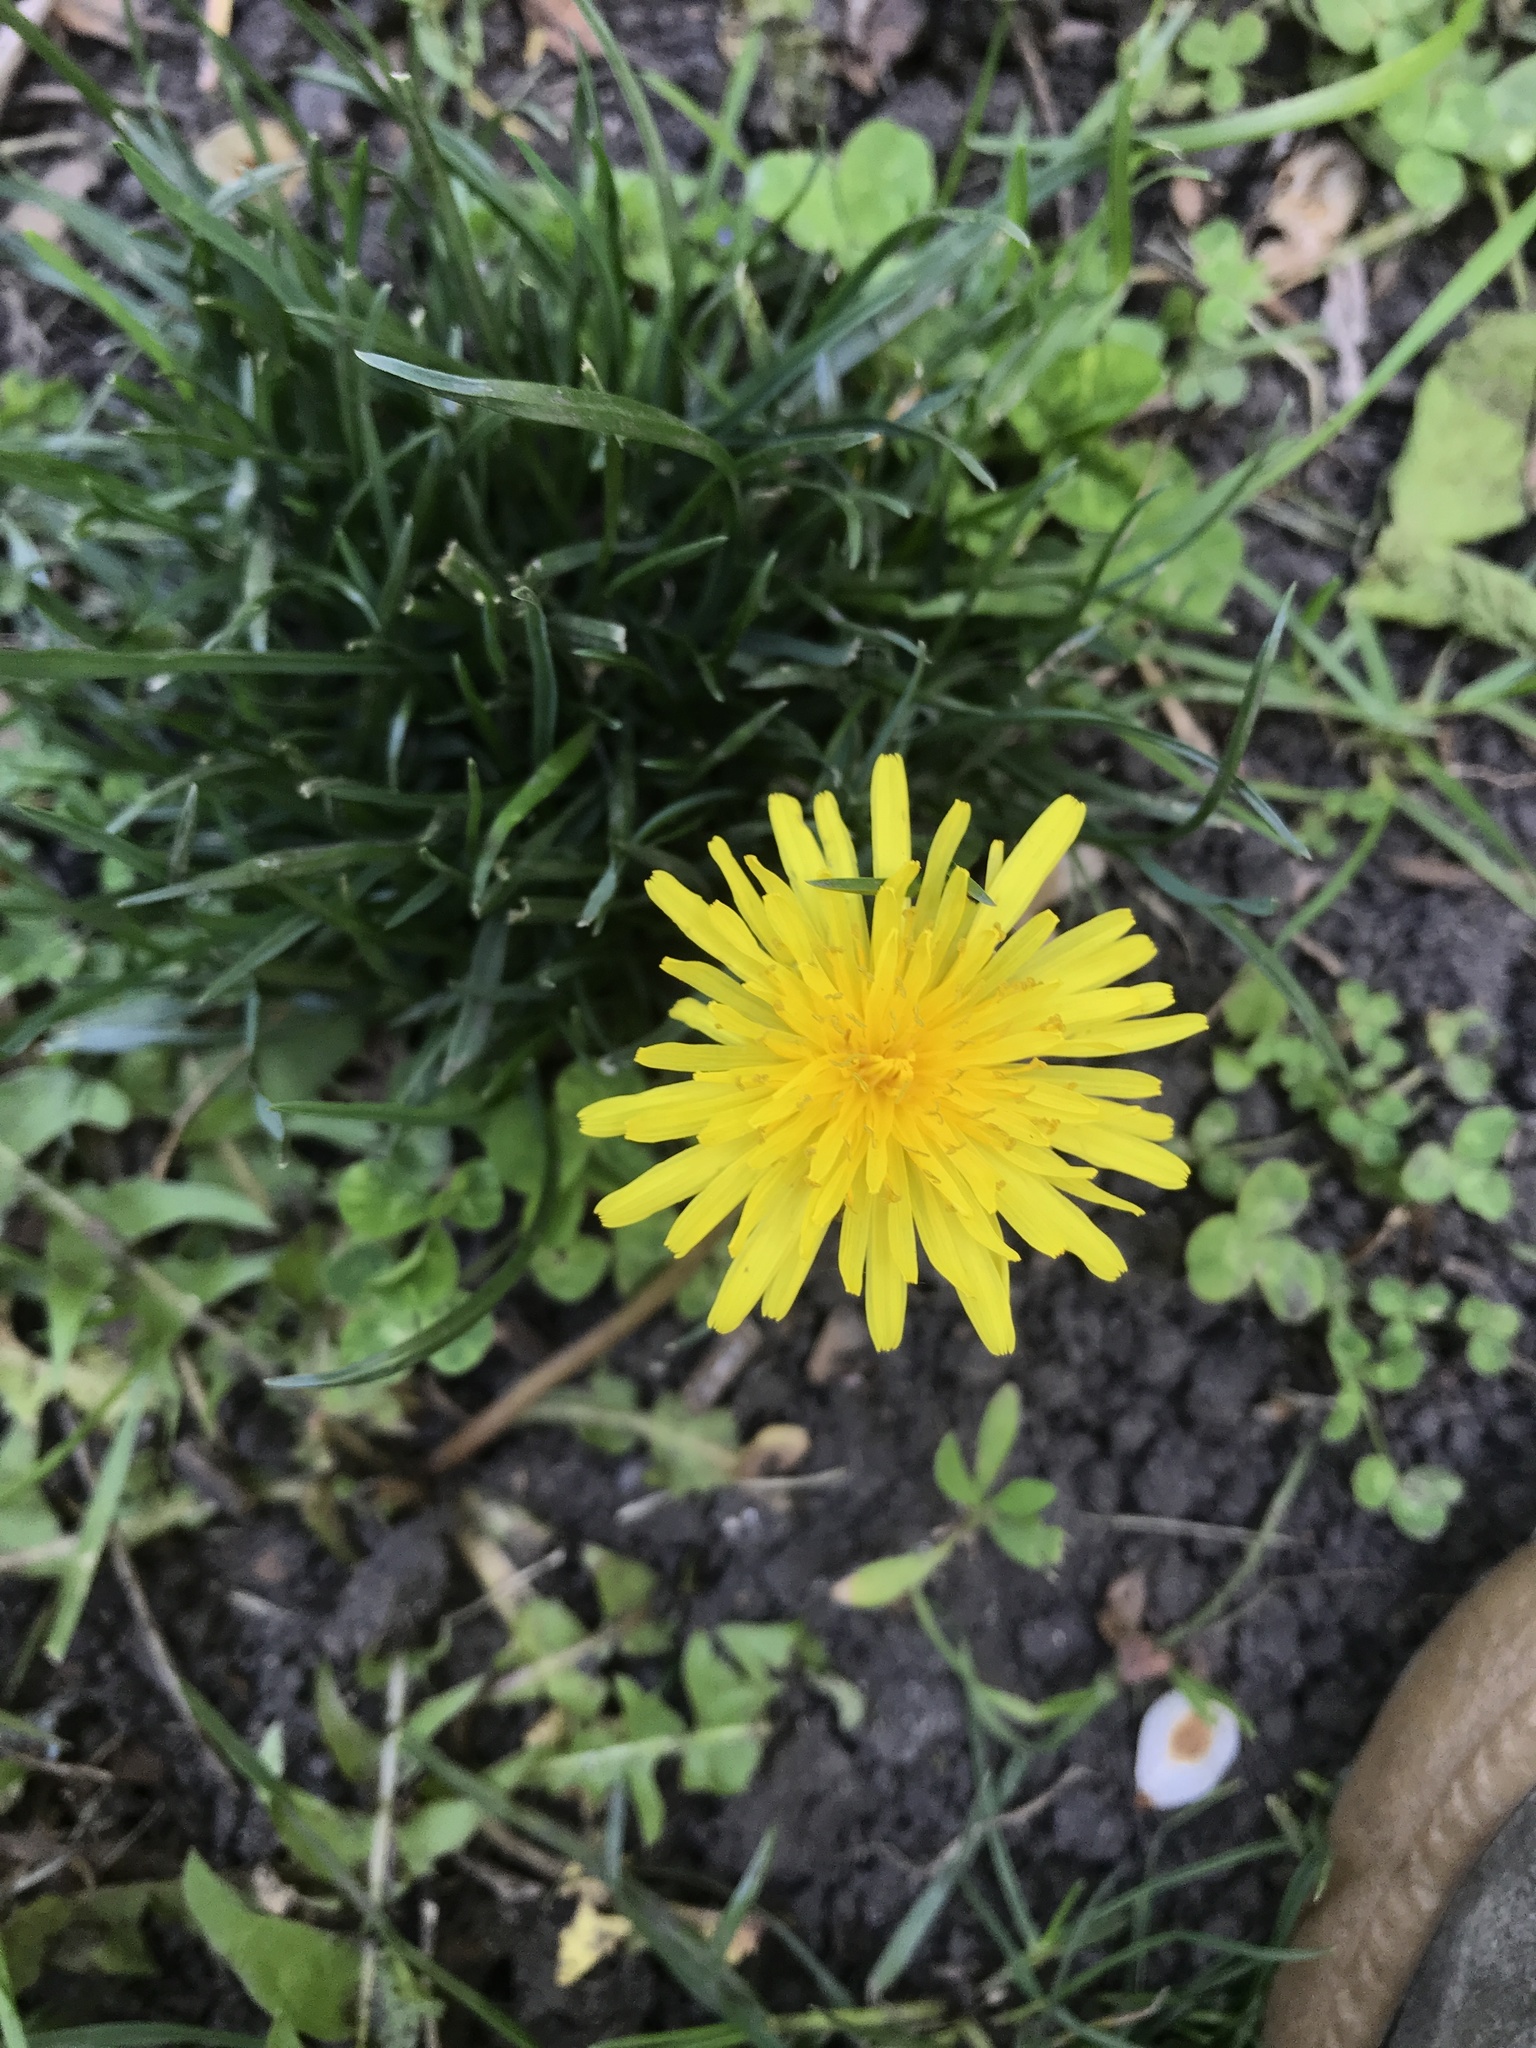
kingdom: Plantae
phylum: Tracheophyta
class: Magnoliopsida
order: Asterales
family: Asteraceae
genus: Taraxacum
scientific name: Taraxacum officinale
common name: Common dandelion
